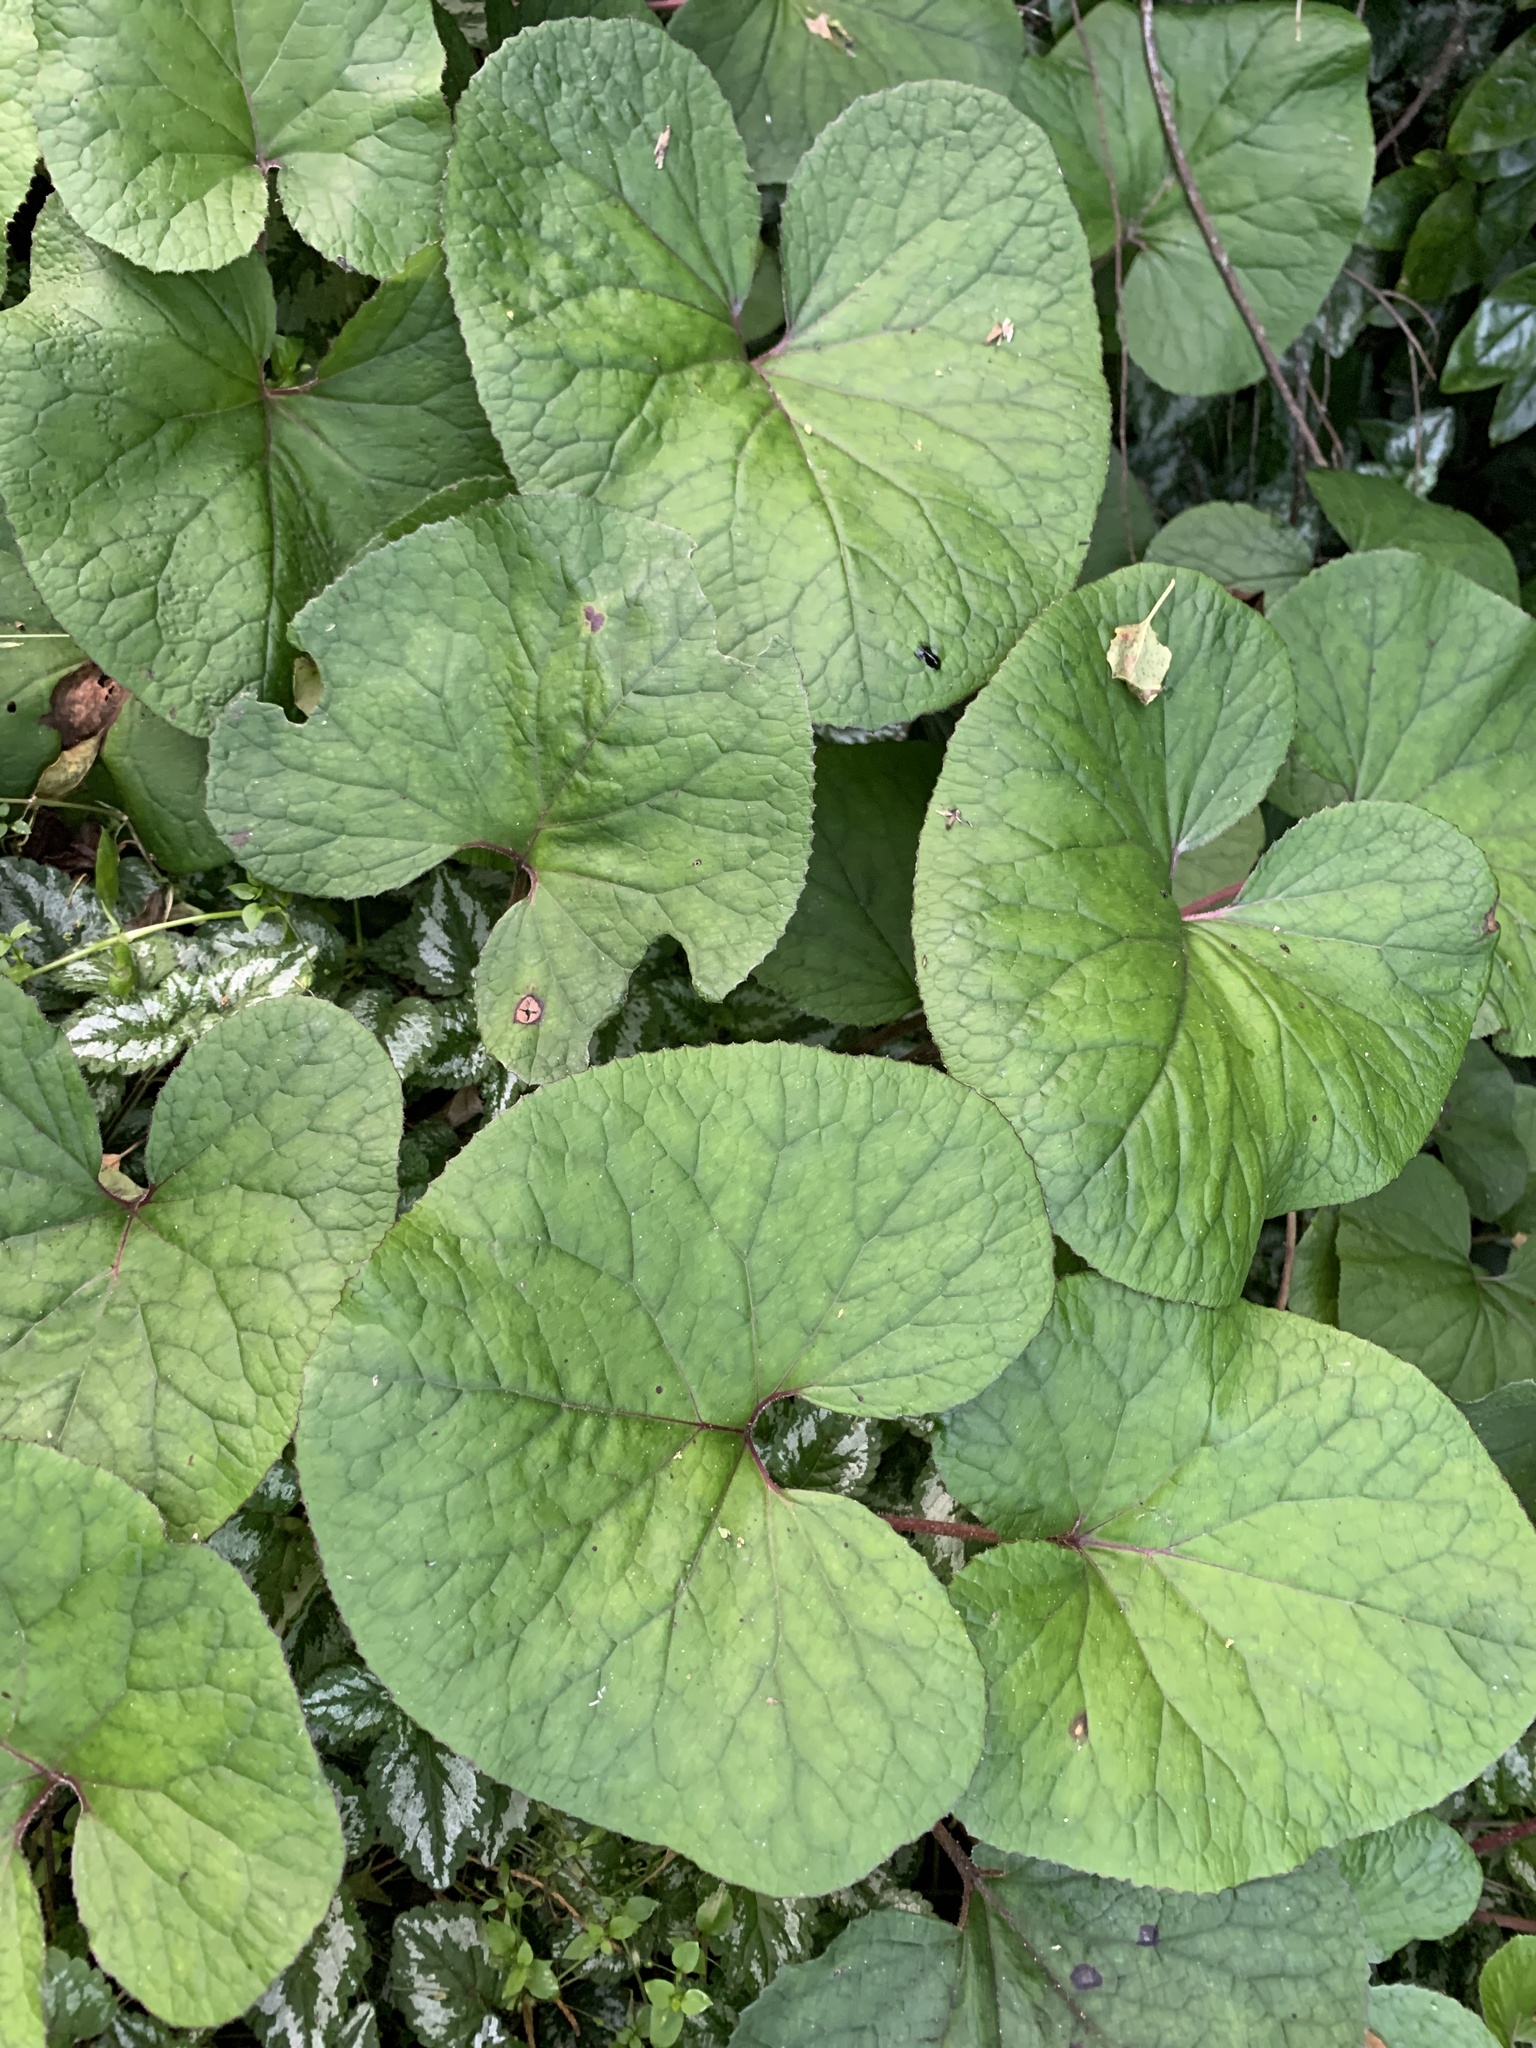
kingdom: Plantae
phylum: Tracheophyta
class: Magnoliopsida
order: Asterales
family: Asteraceae
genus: Petasites
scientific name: Petasites pyrenaicus
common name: Winter heliotrope
